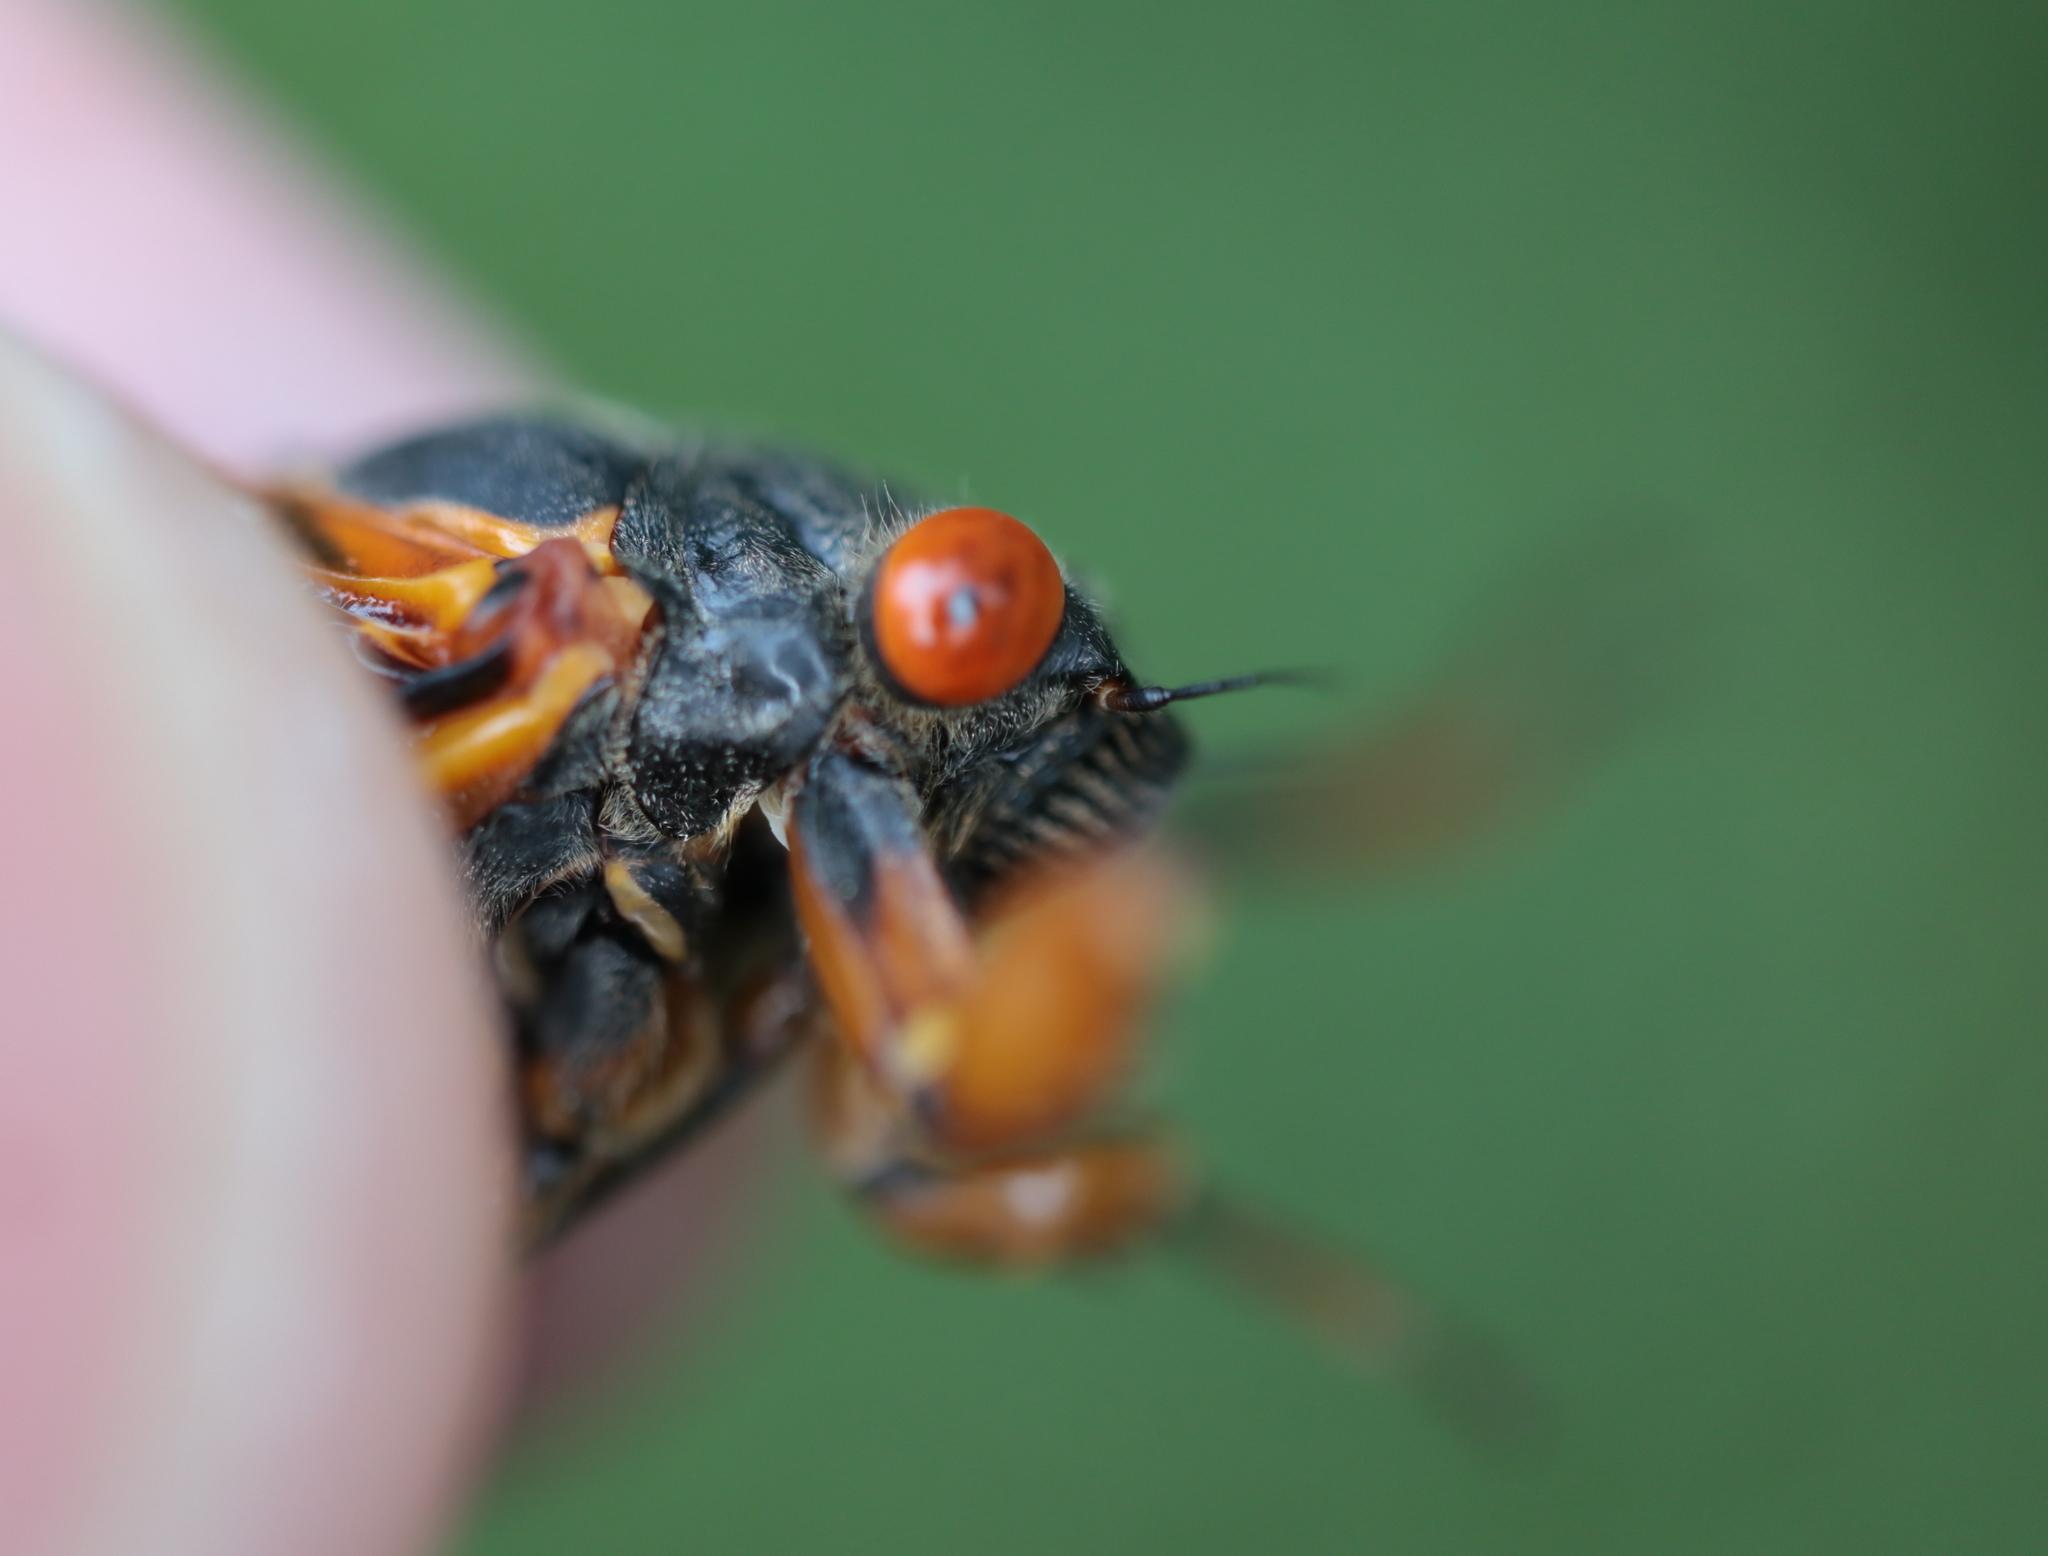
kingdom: Animalia
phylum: Arthropoda
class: Insecta
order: Hemiptera
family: Cicadidae
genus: Magicicada
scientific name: Magicicada cassini
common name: Cassin's 17-year cicada
